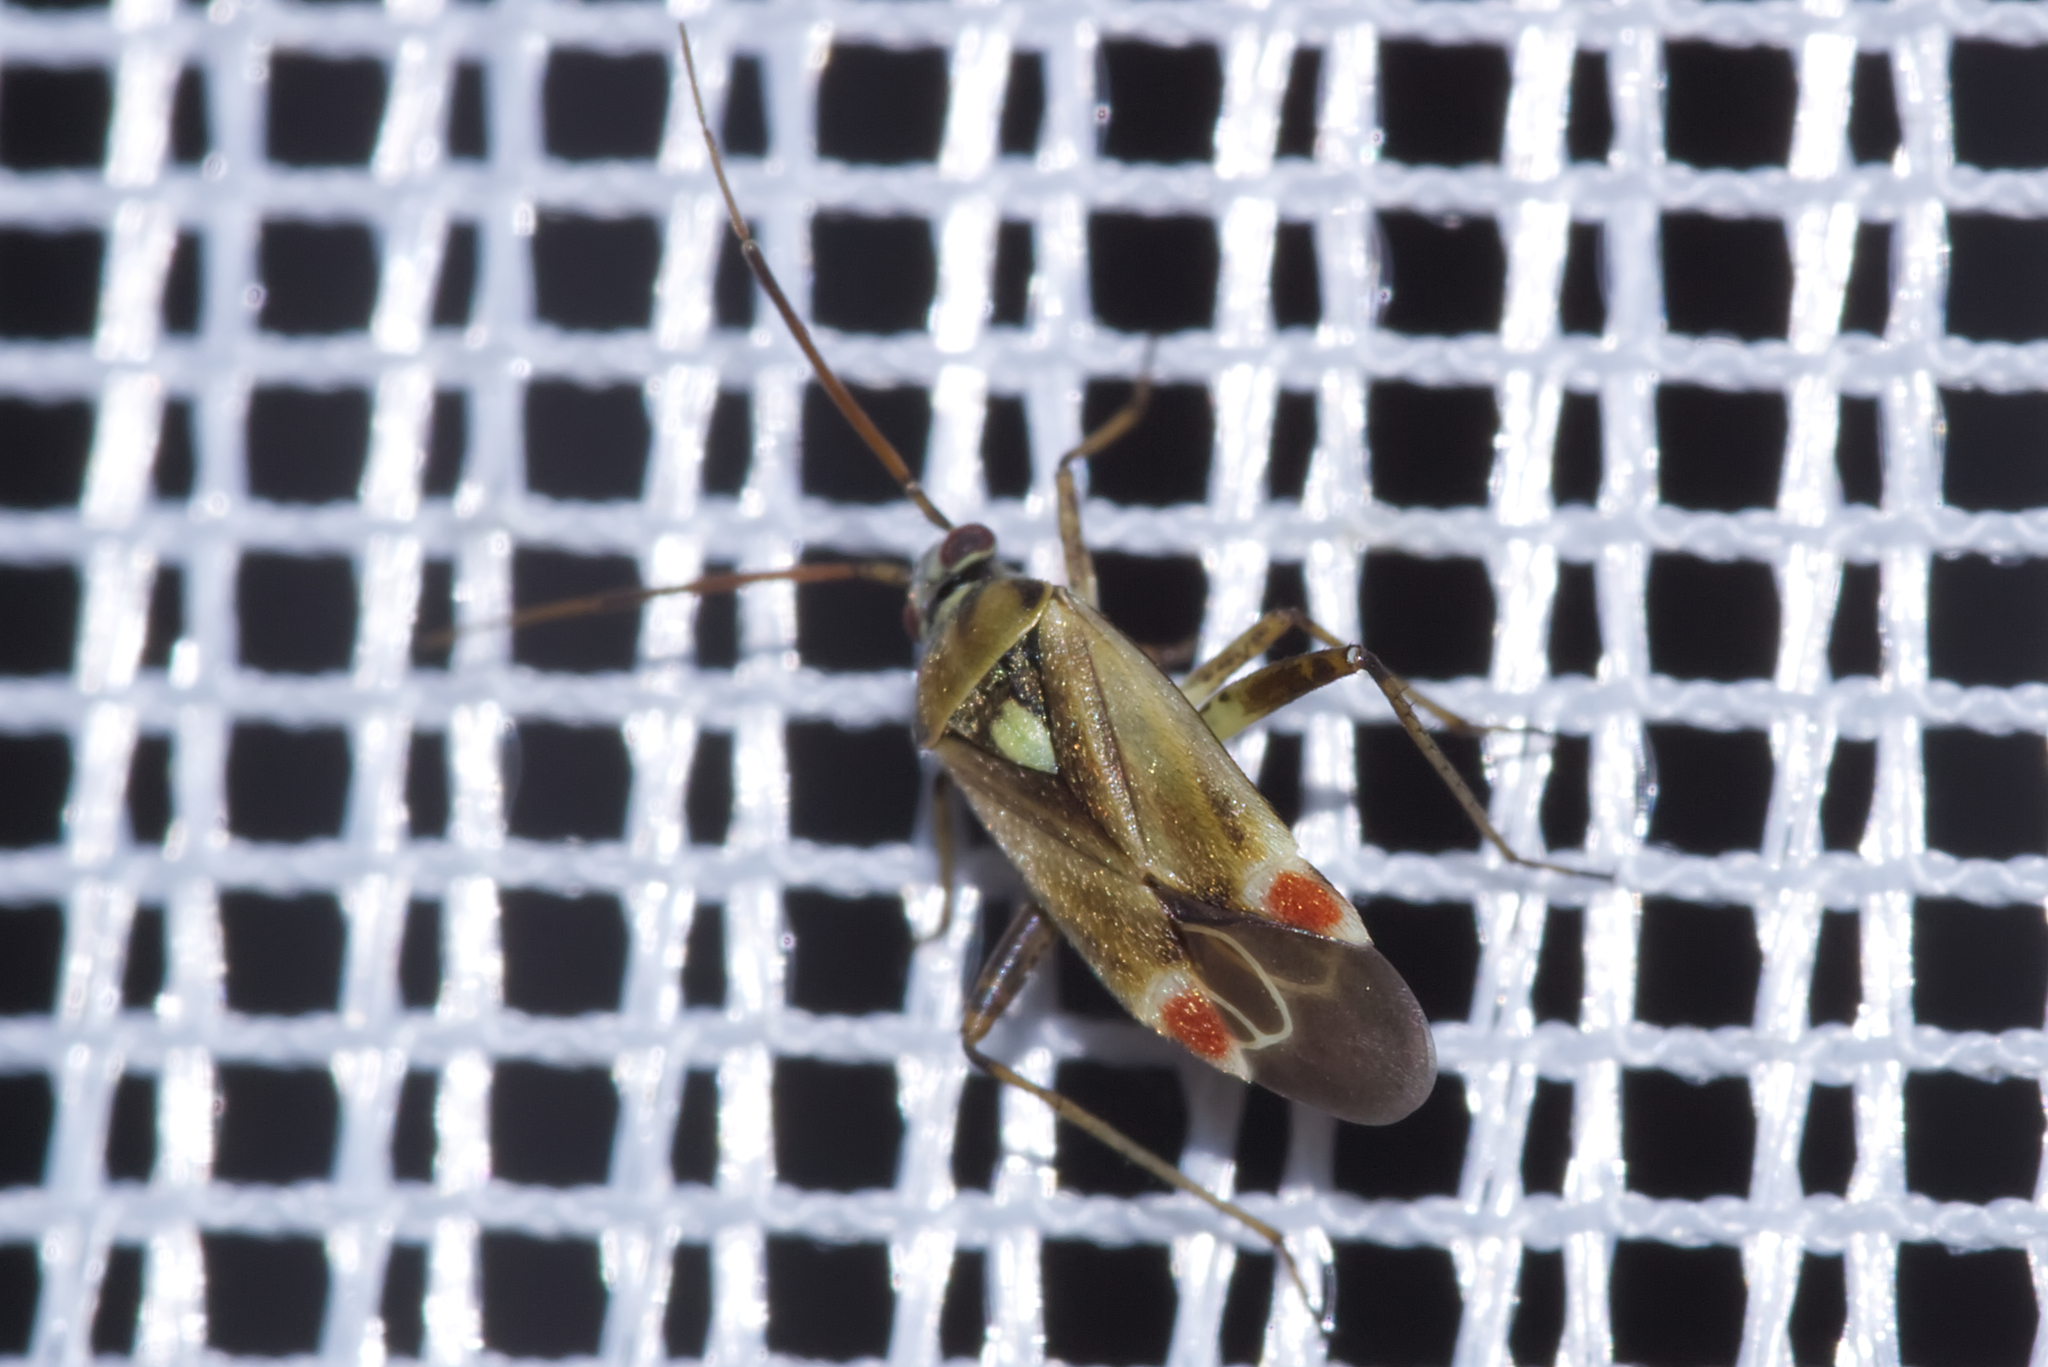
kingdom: Animalia
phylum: Arthropoda
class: Insecta
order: Hemiptera
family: Miridae
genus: Polymerus
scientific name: Polymerus vulneratus
